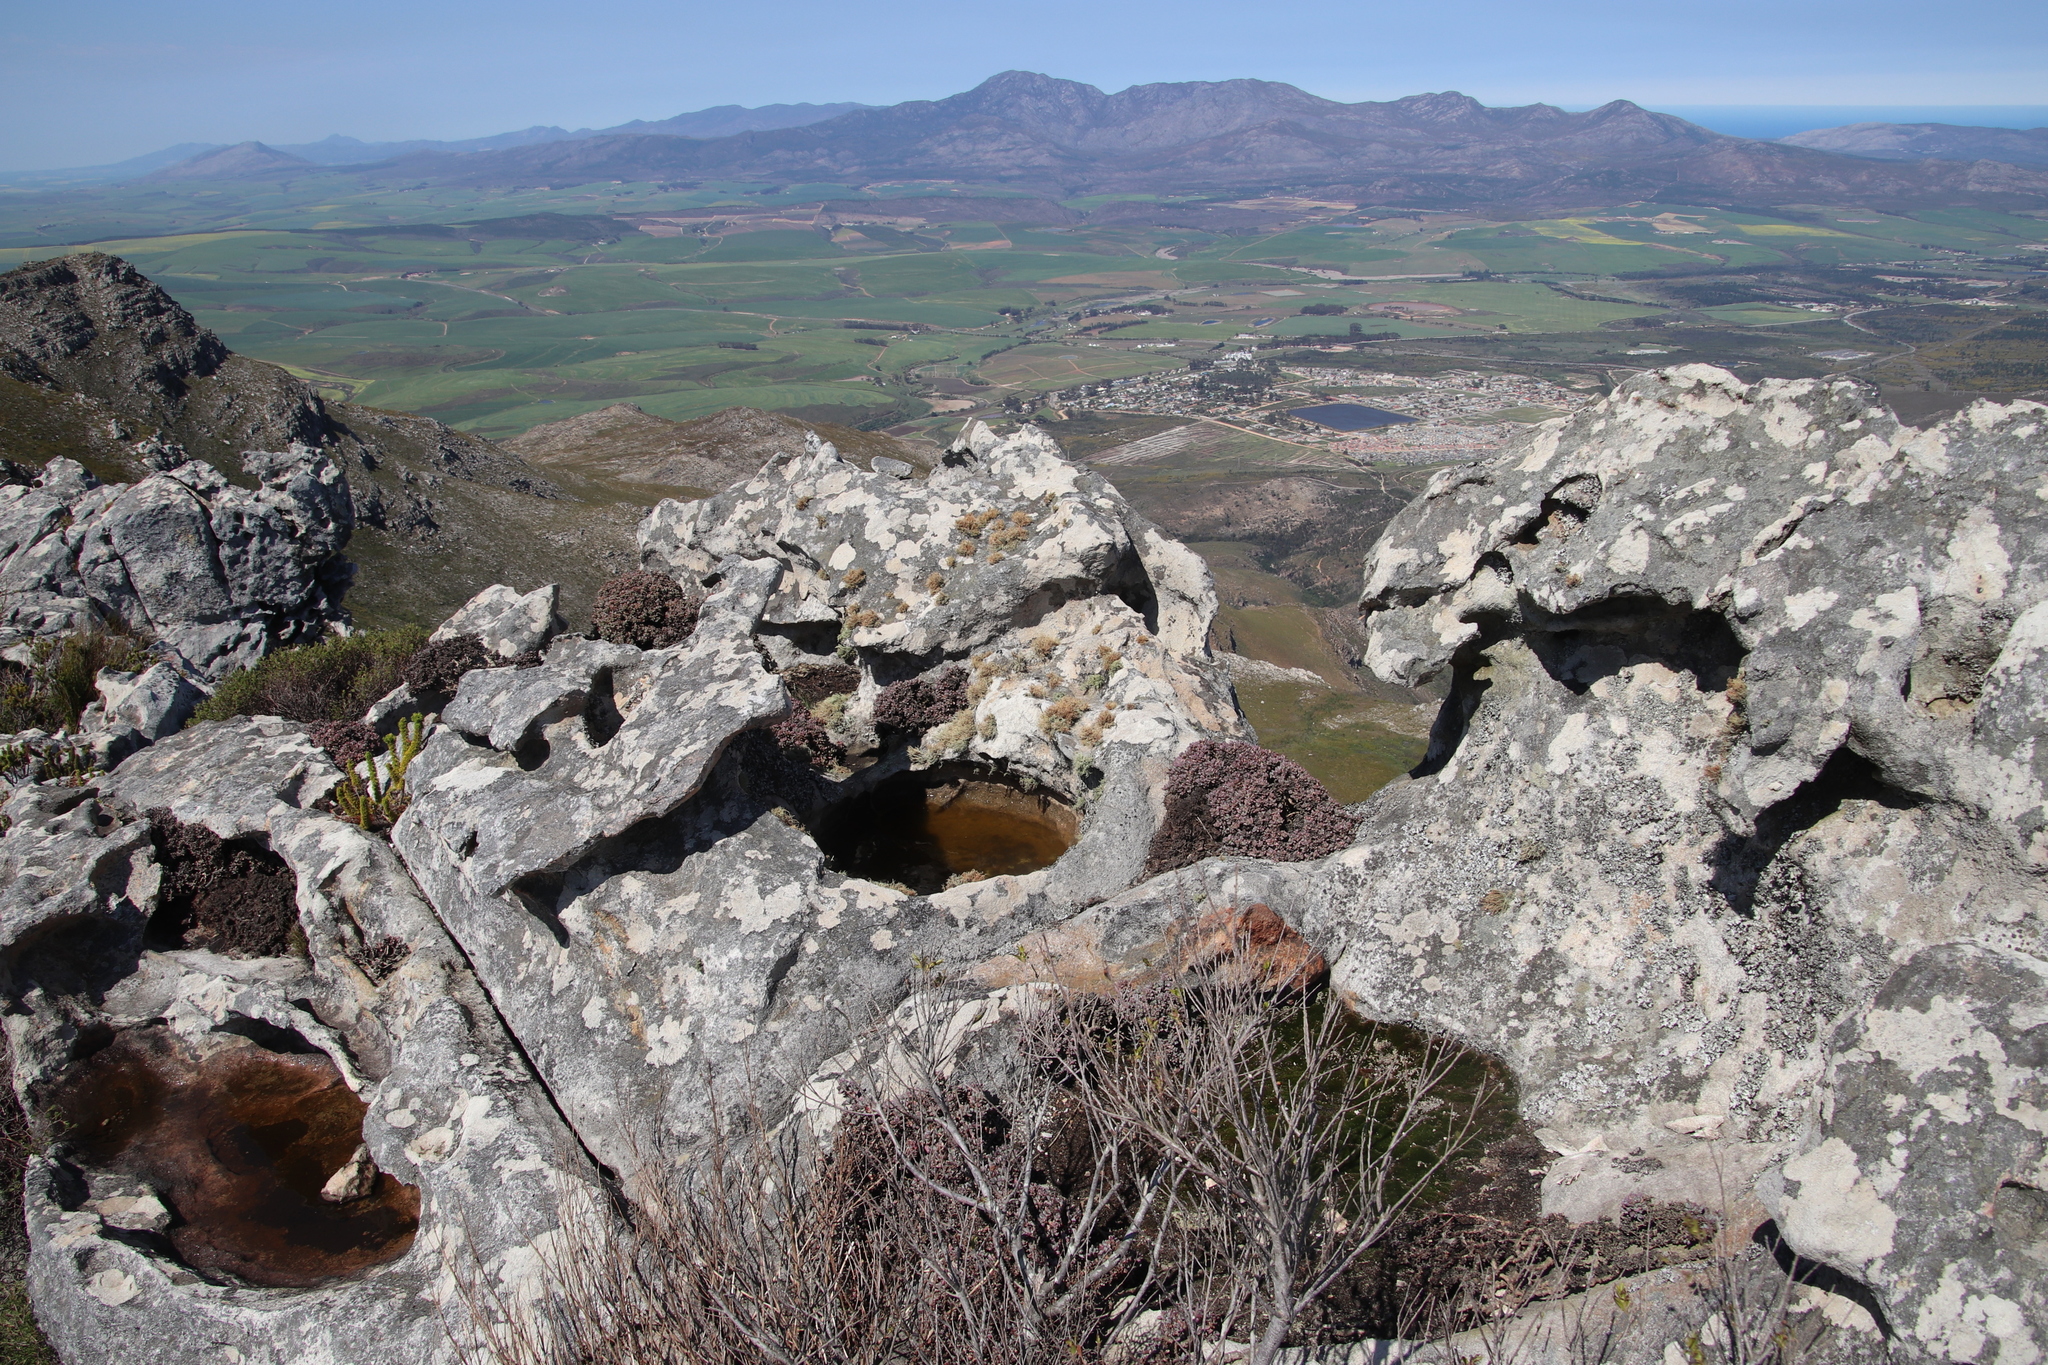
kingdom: Plantae
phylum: Tracheophyta
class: Magnoliopsida
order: Caryophyllales
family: Aizoaceae
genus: Oscularia
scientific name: Oscularia deltoides
